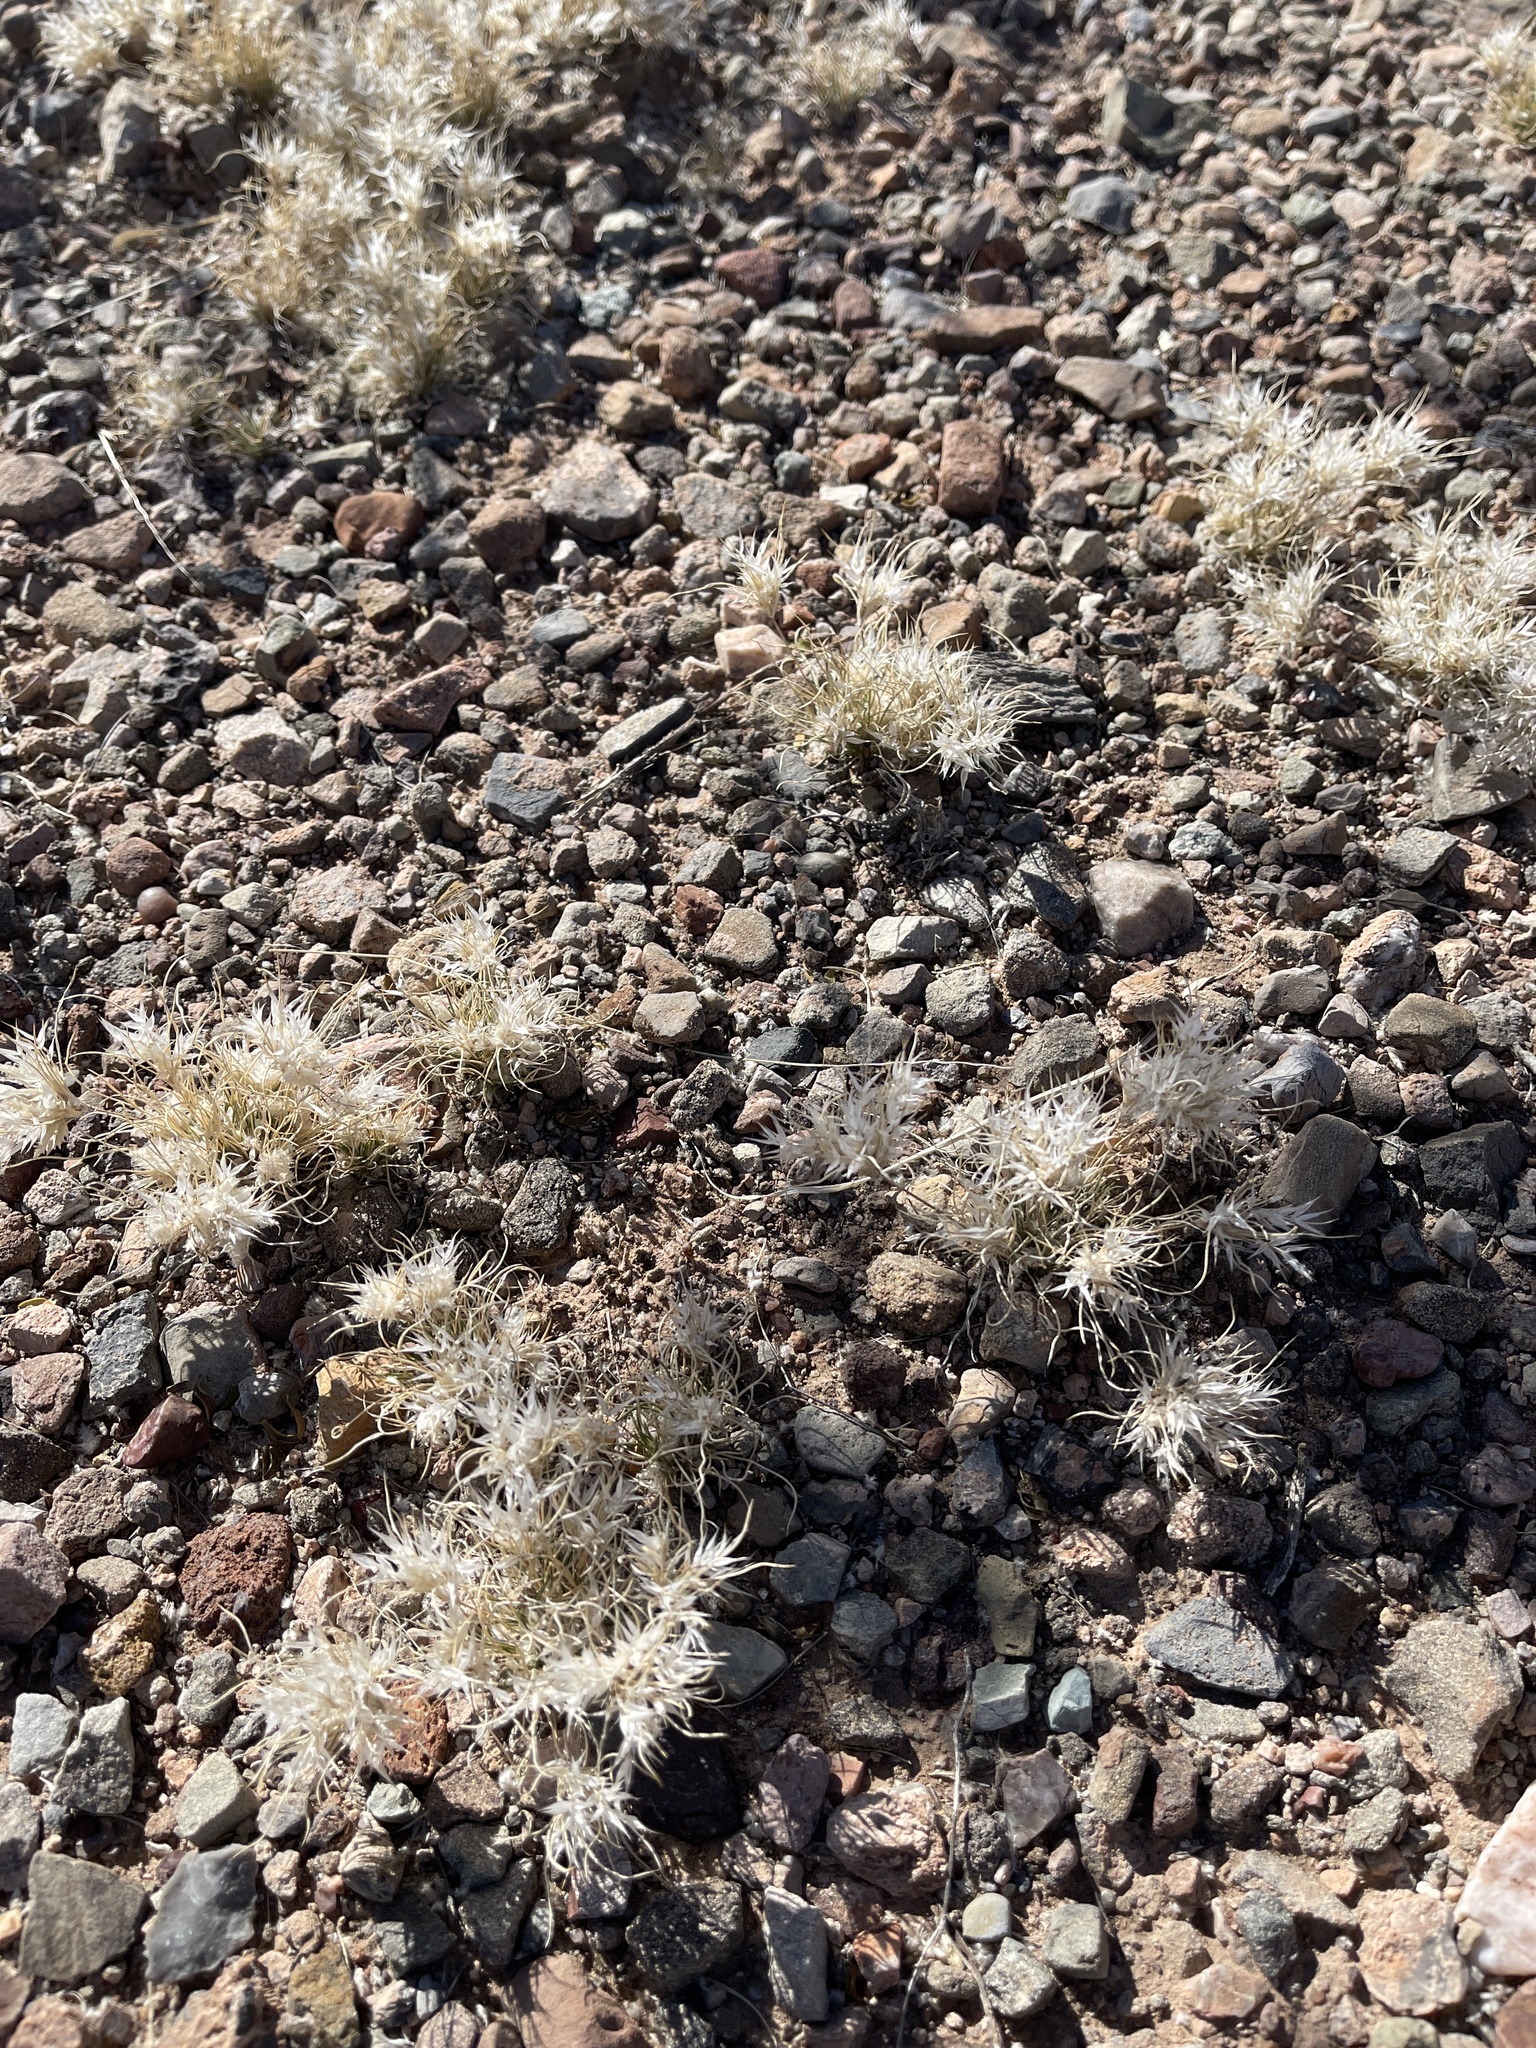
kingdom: Plantae
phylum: Tracheophyta
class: Liliopsida
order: Poales
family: Poaceae
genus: Dasyochloa
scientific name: Dasyochloa pulchella
